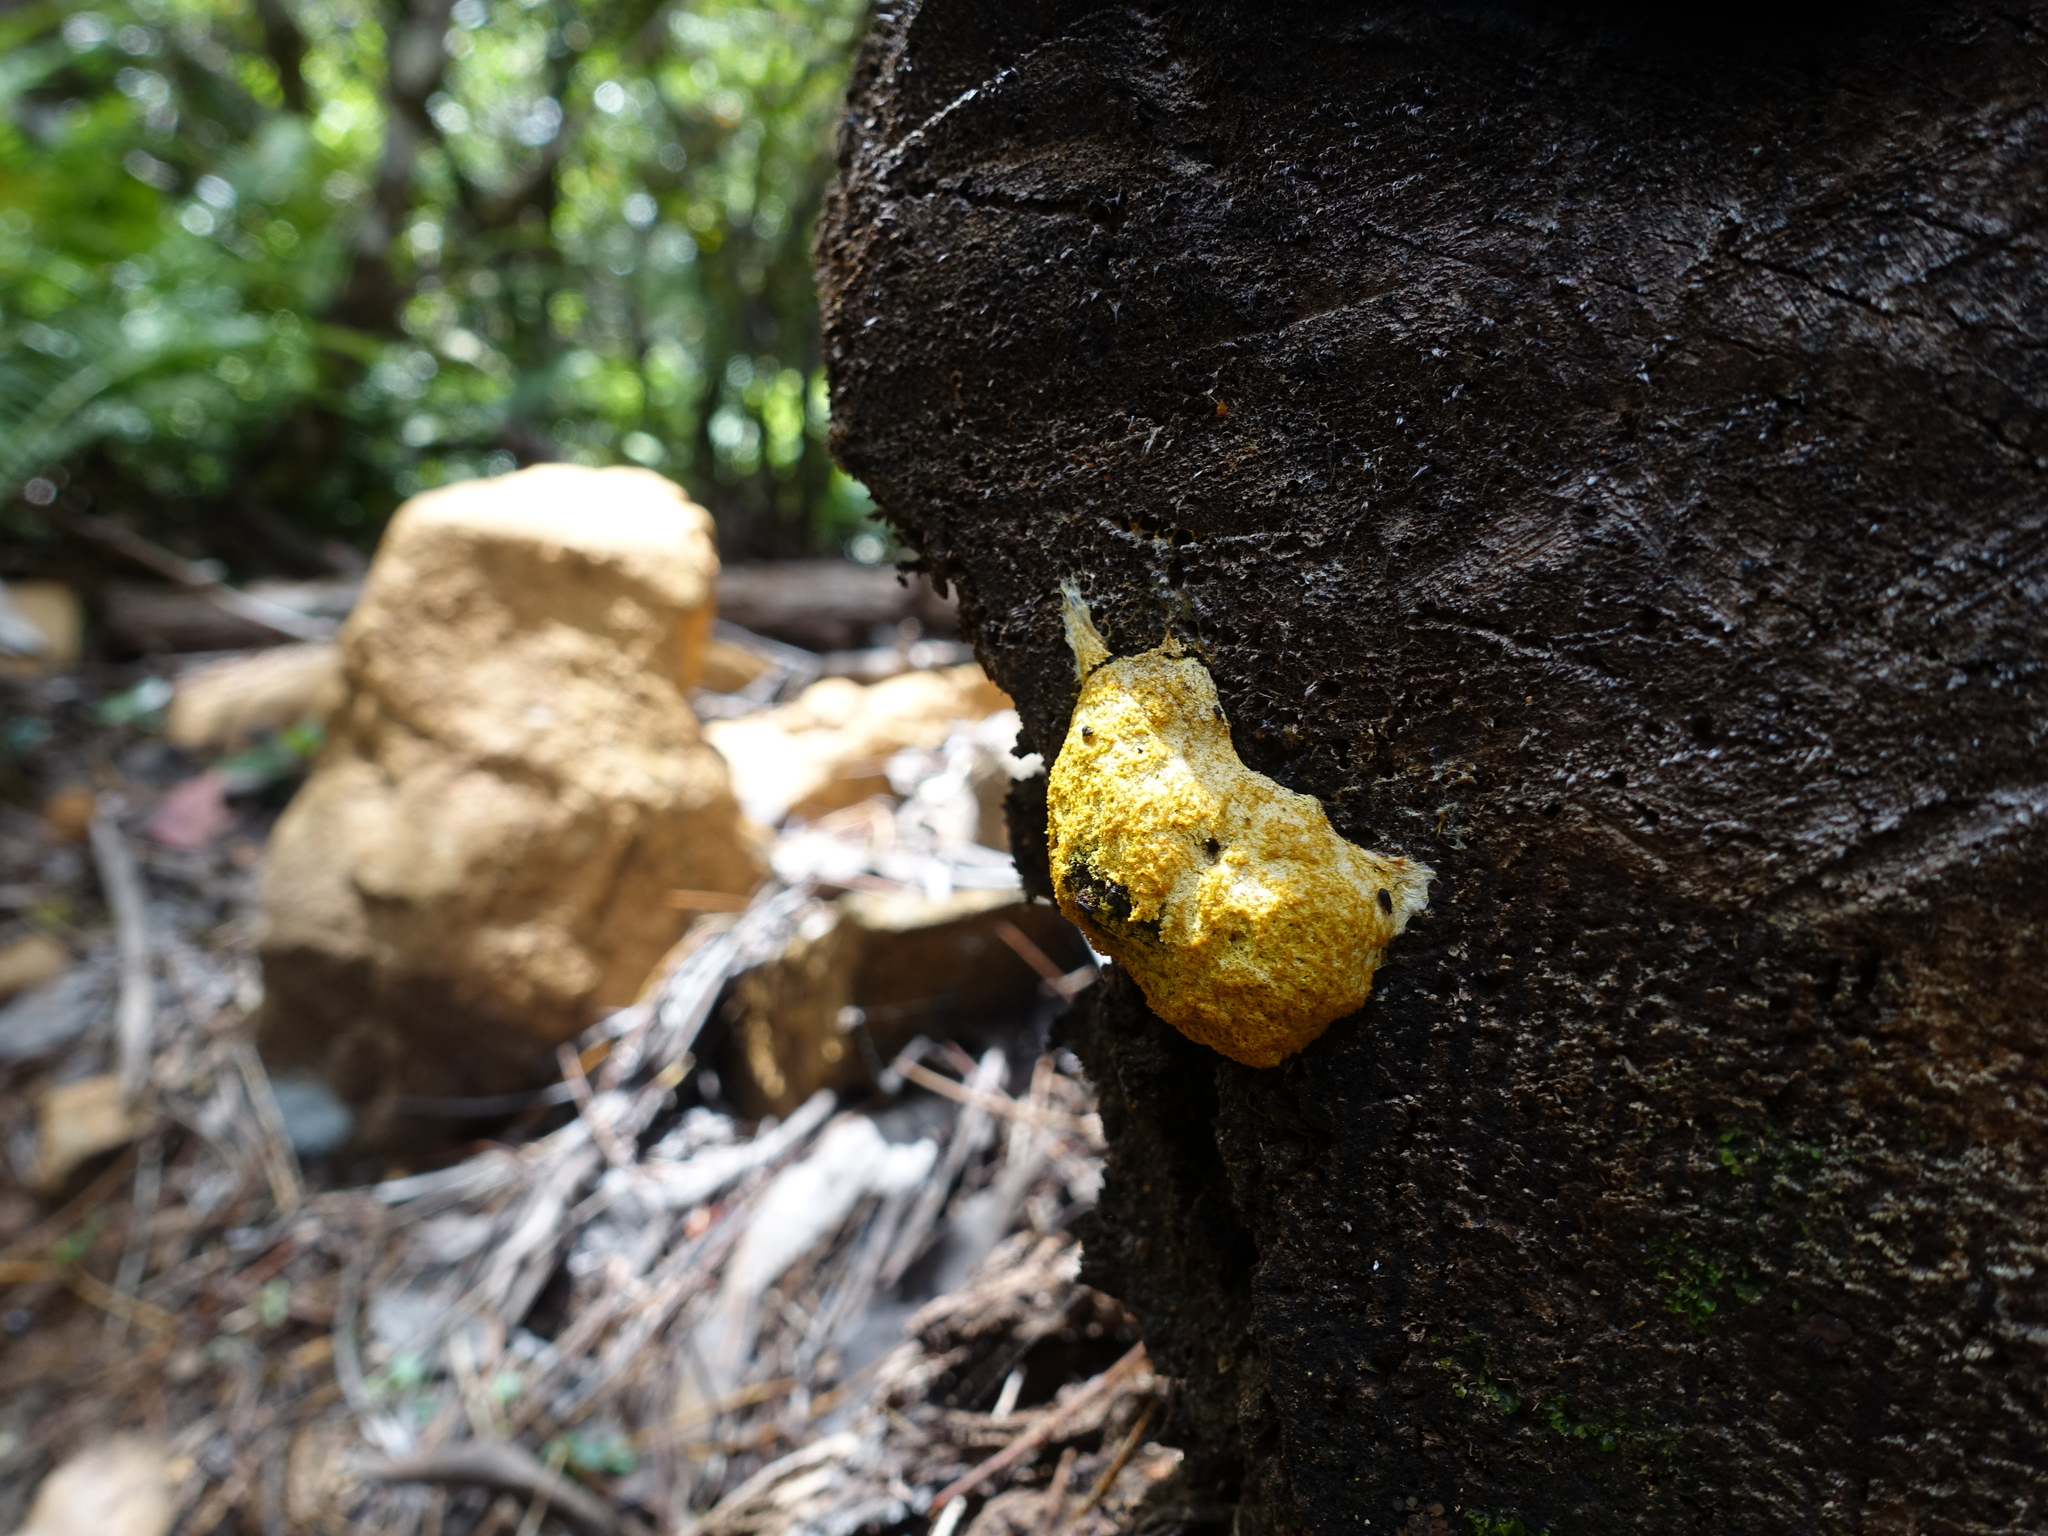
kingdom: Protozoa
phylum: Mycetozoa
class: Myxomycetes
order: Physarales
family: Physaraceae
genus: Fuligo
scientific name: Fuligo septica
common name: Dog vomit slime mold
